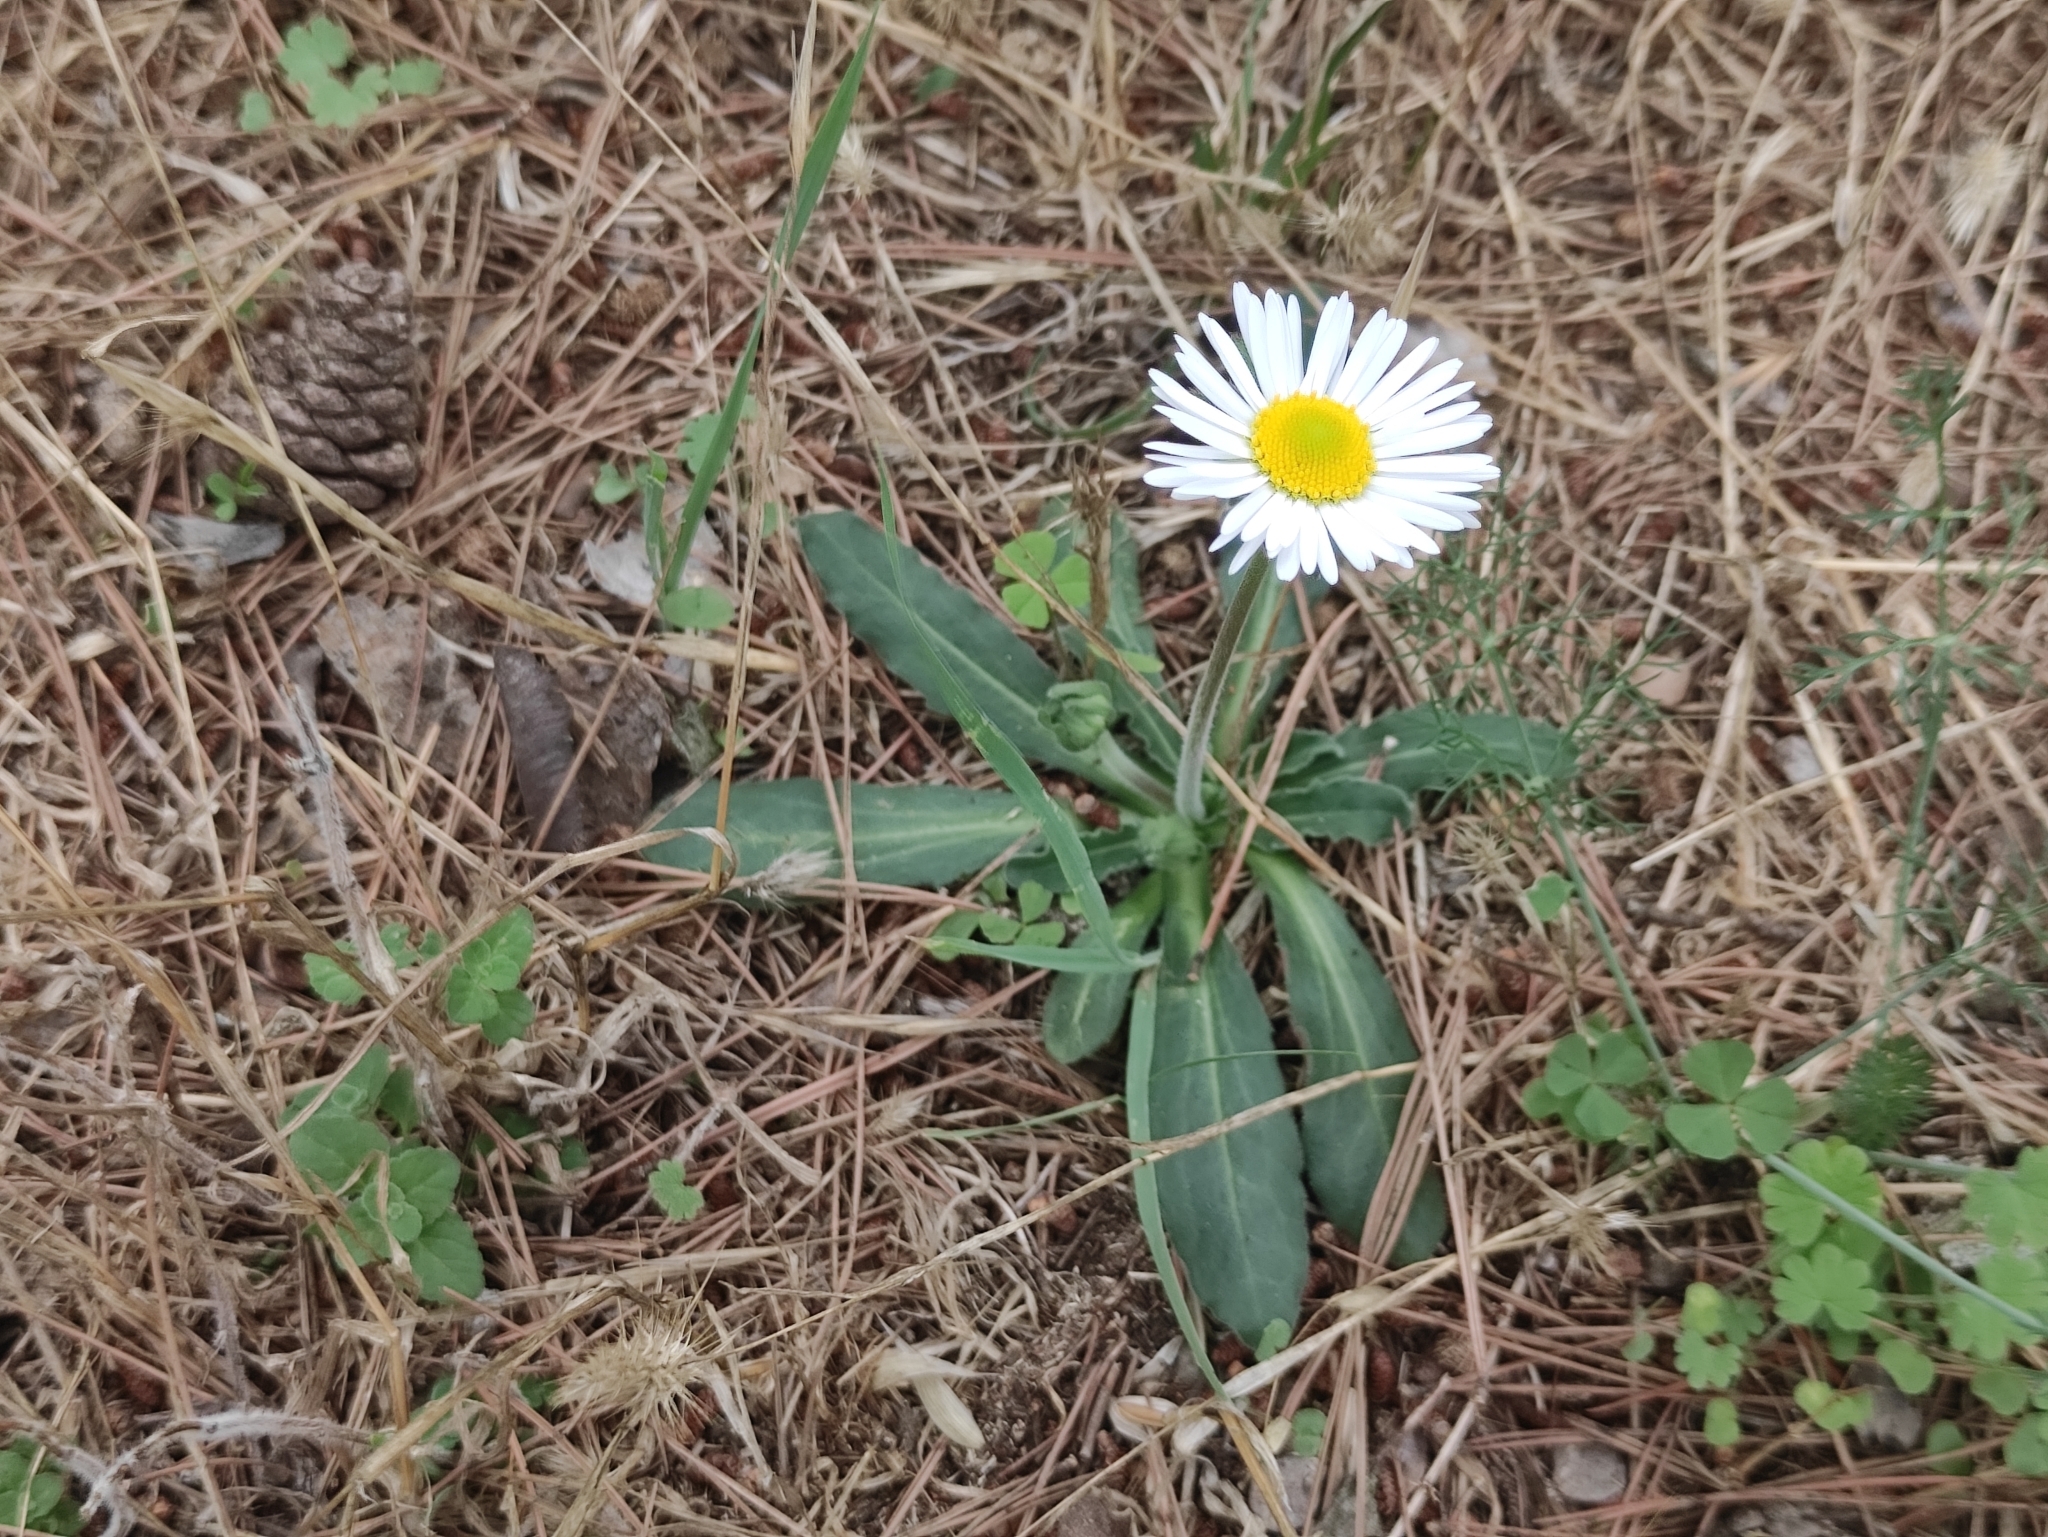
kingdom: Plantae
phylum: Tracheophyta
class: Magnoliopsida
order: Asterales
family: Asteraceae
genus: Bellis
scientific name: Bellis sylvestris
